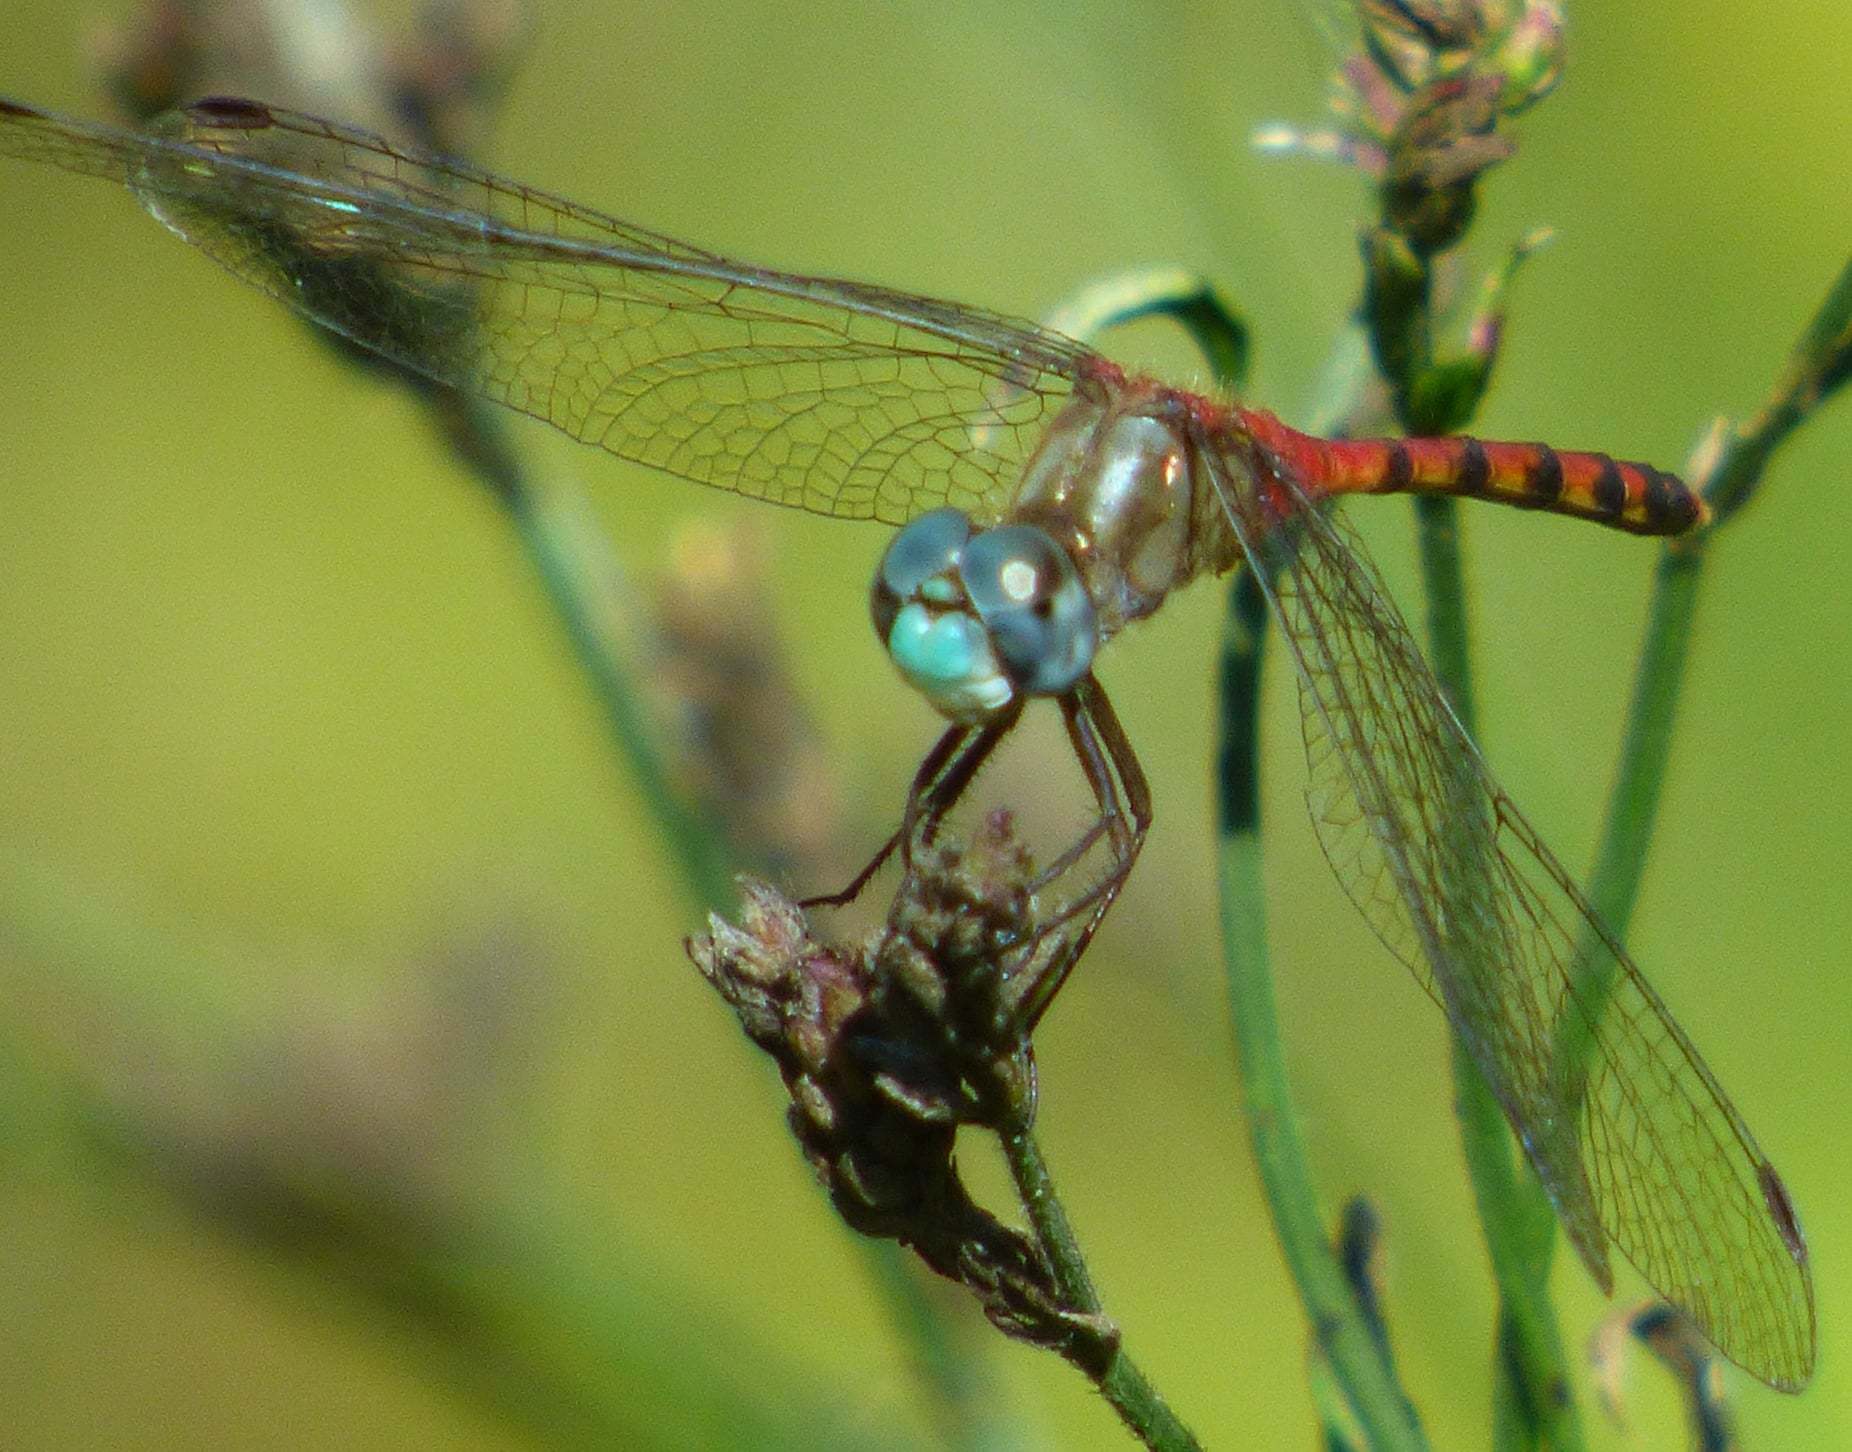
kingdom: Animalia
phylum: Arthropoda
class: Insecta
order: Odonata
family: Libellulidae
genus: Sympetrum
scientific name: Sympetrum ambiguum
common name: Blue-faced meadowhawk
